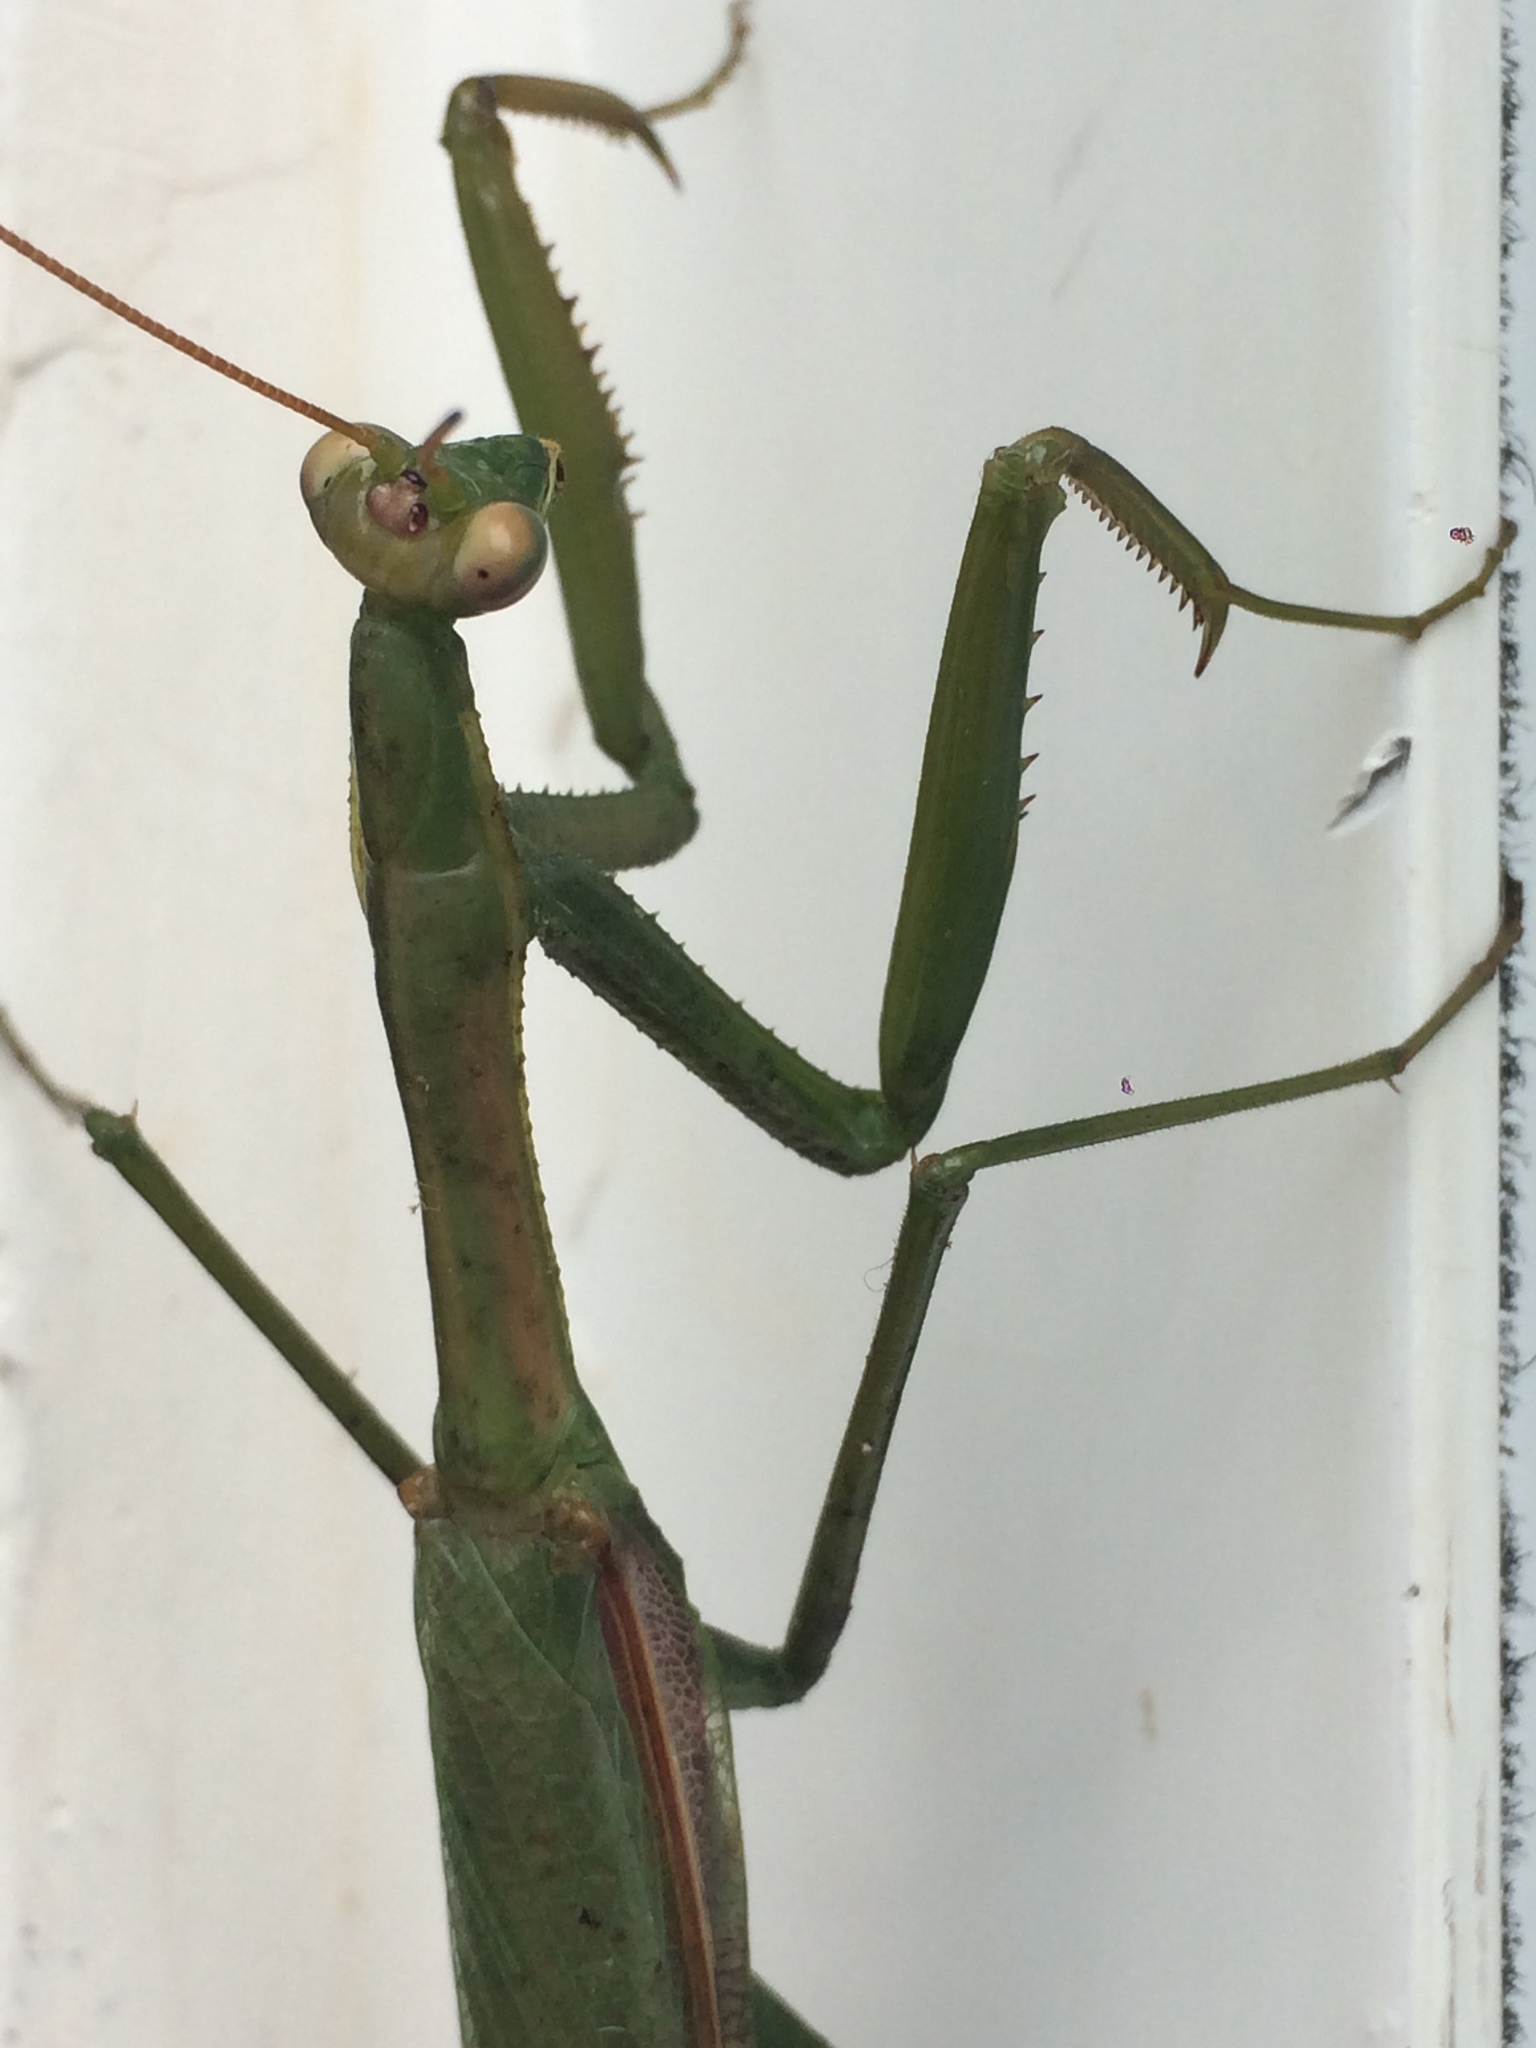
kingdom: Animalia
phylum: Arthropoda
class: Insecta
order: Mantodea
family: Coptopterygidae
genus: Coptopteryx
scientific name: Coptopteryx argentina
